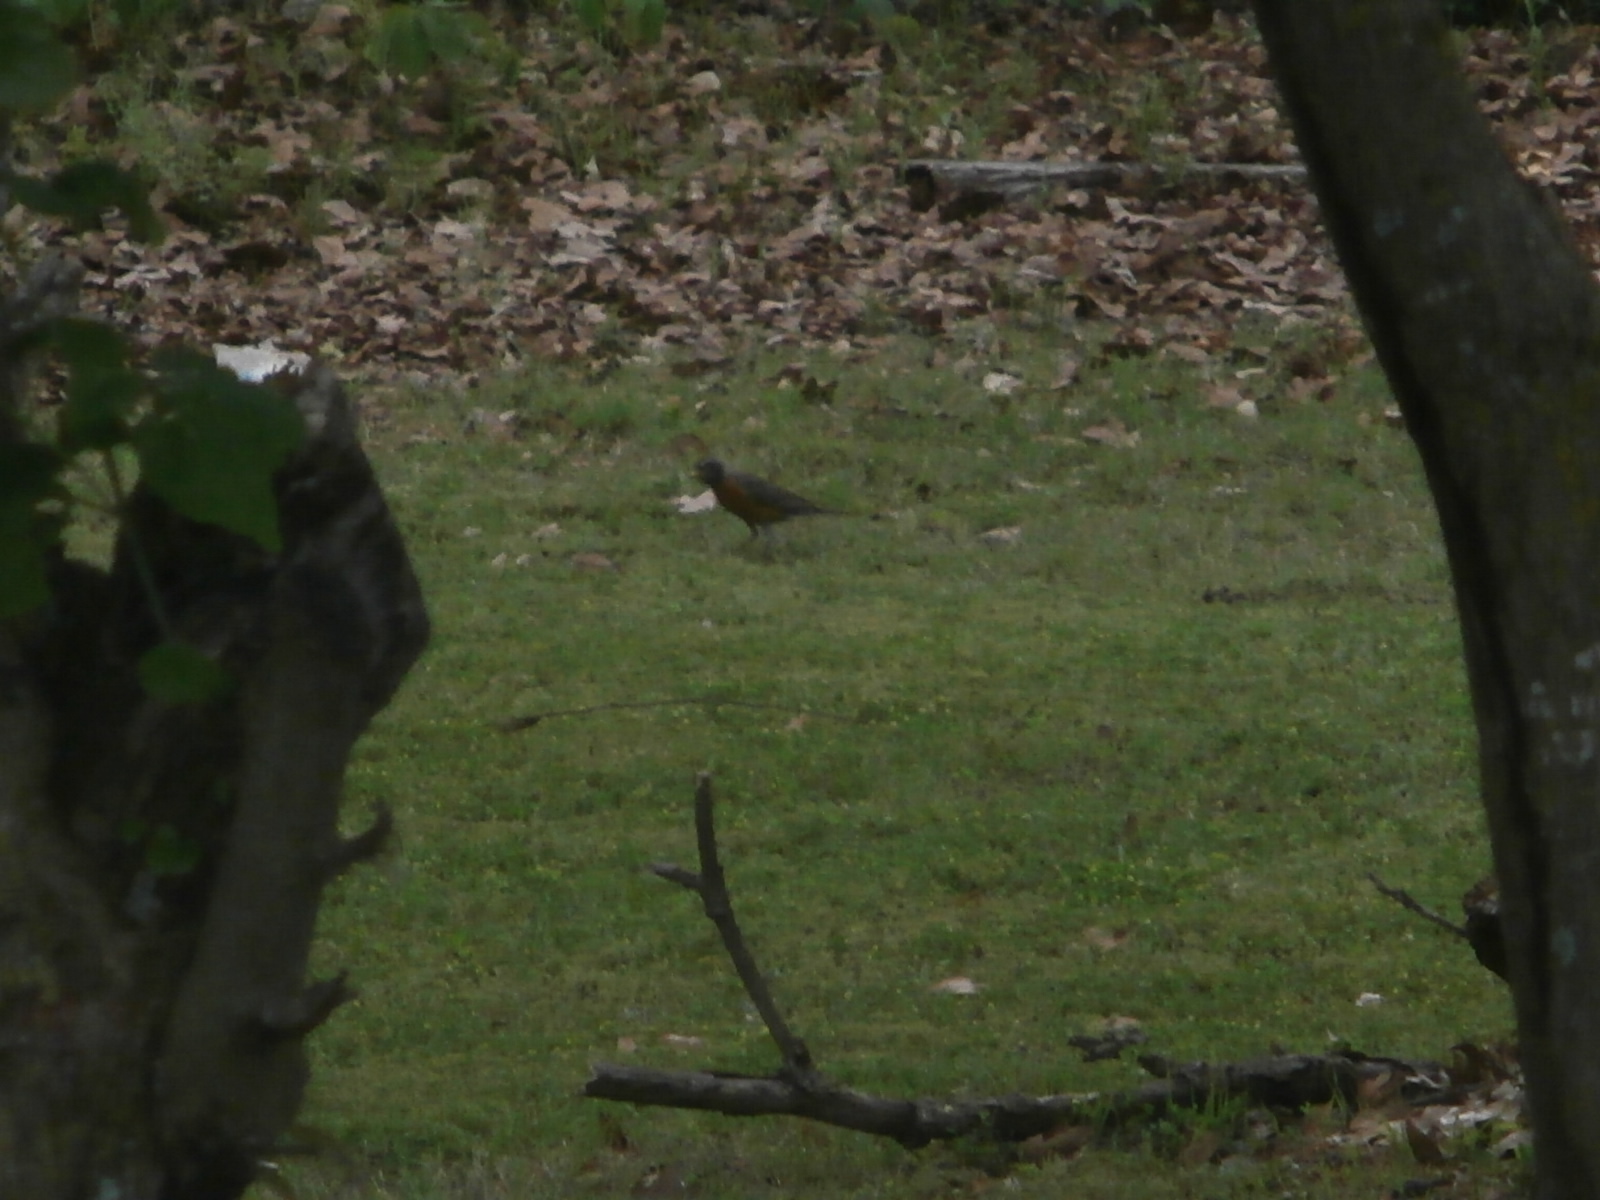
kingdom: Animalia
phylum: Chordata
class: Aves
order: Passeriformes
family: Turdidae
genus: Turdus
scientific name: Turdus migratorius
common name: American robin
